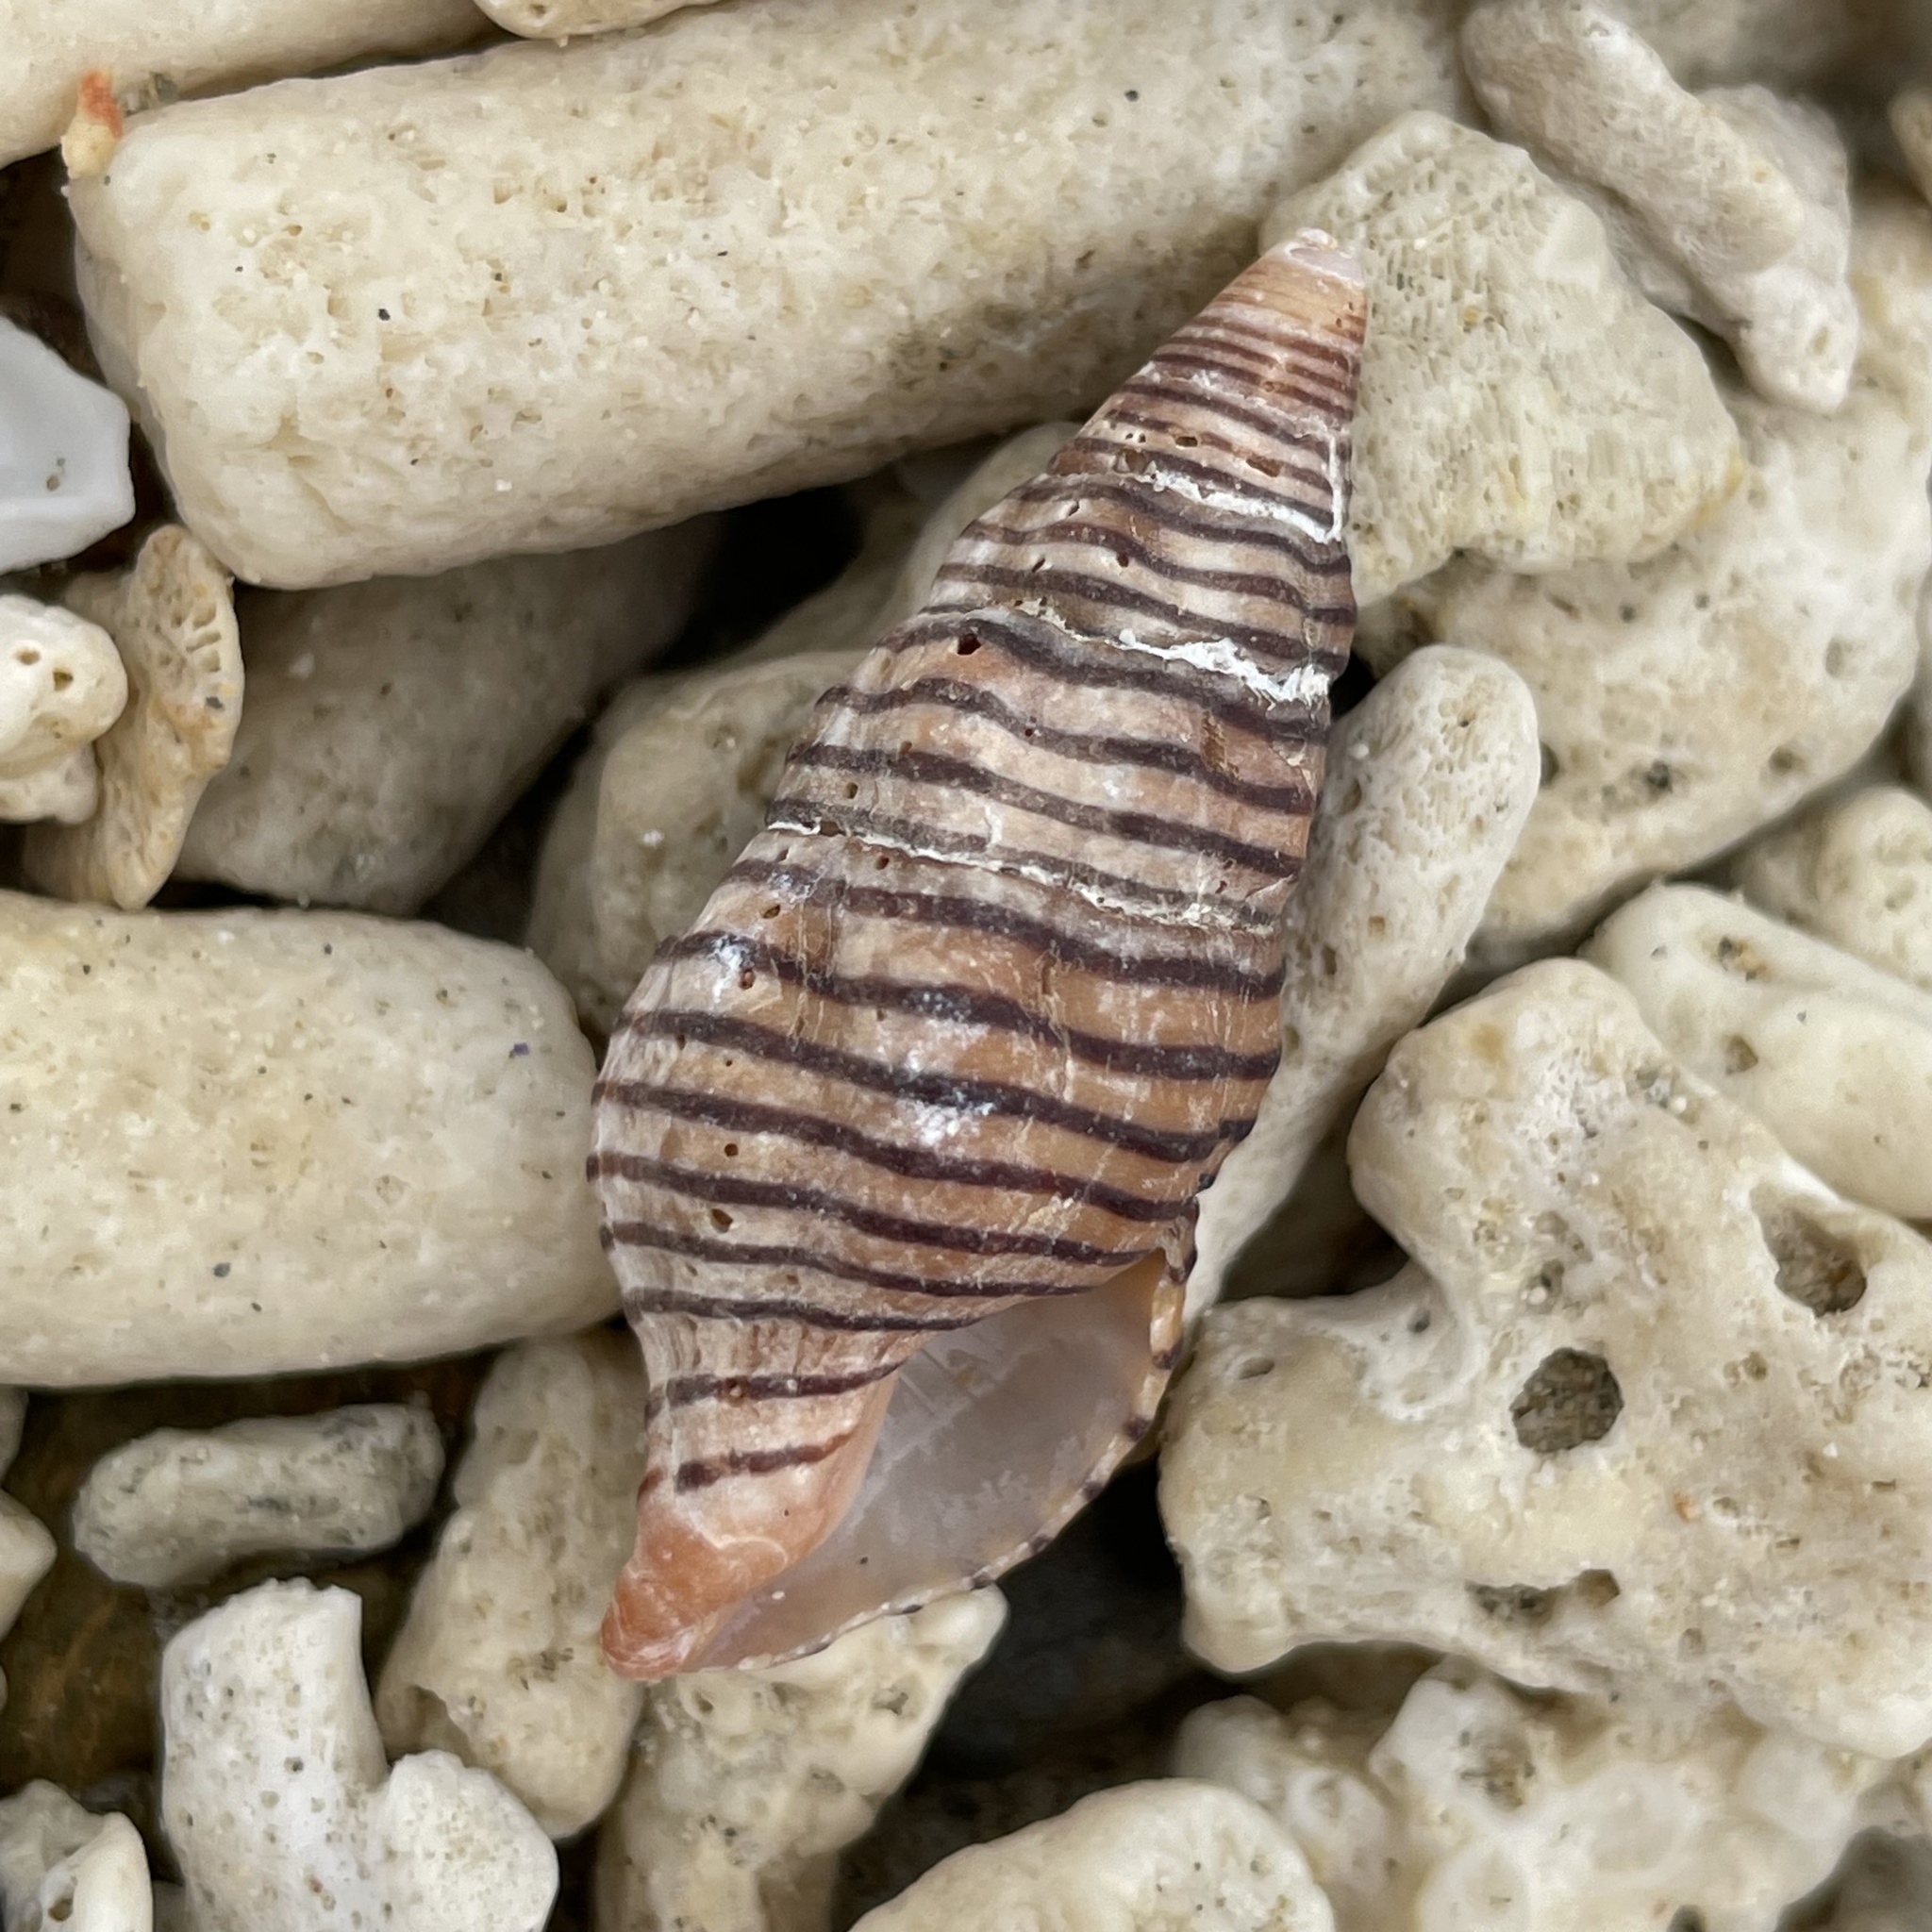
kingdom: Animalia
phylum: Mollusca
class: Gastropoda
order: Neogastropoda
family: Fasciolariidae
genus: Turrilatirus
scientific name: Turrilatirus turritus
